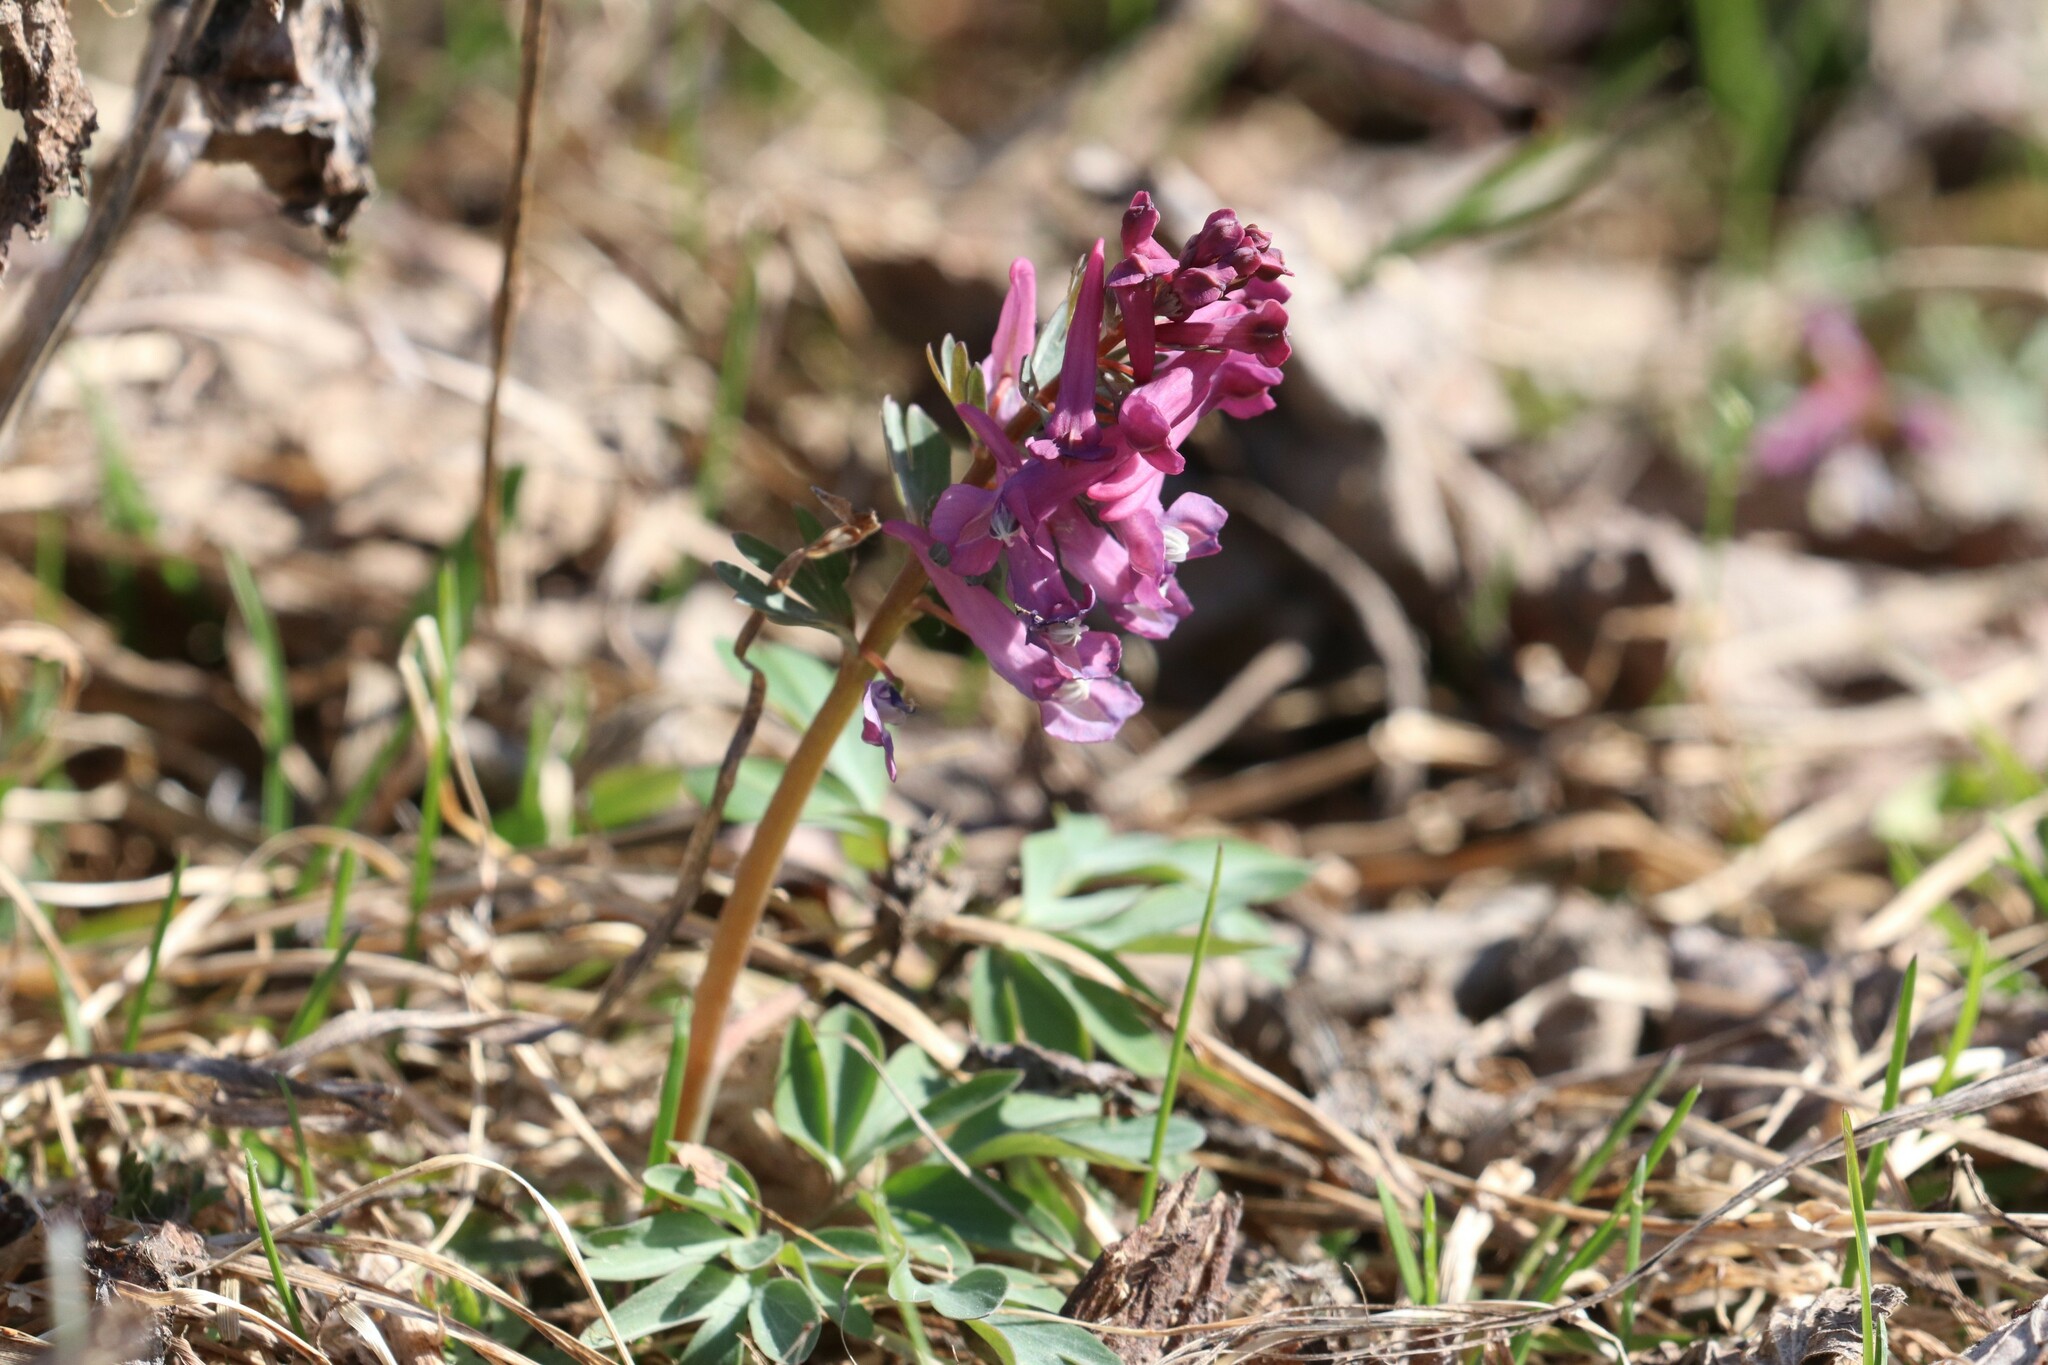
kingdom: Plantae
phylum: Tracheophyta
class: Magnoliopsida
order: Ranunculales
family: Papaveraceae
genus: Corydalis
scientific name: Corydalis solida
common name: Bird-in-a-bush
